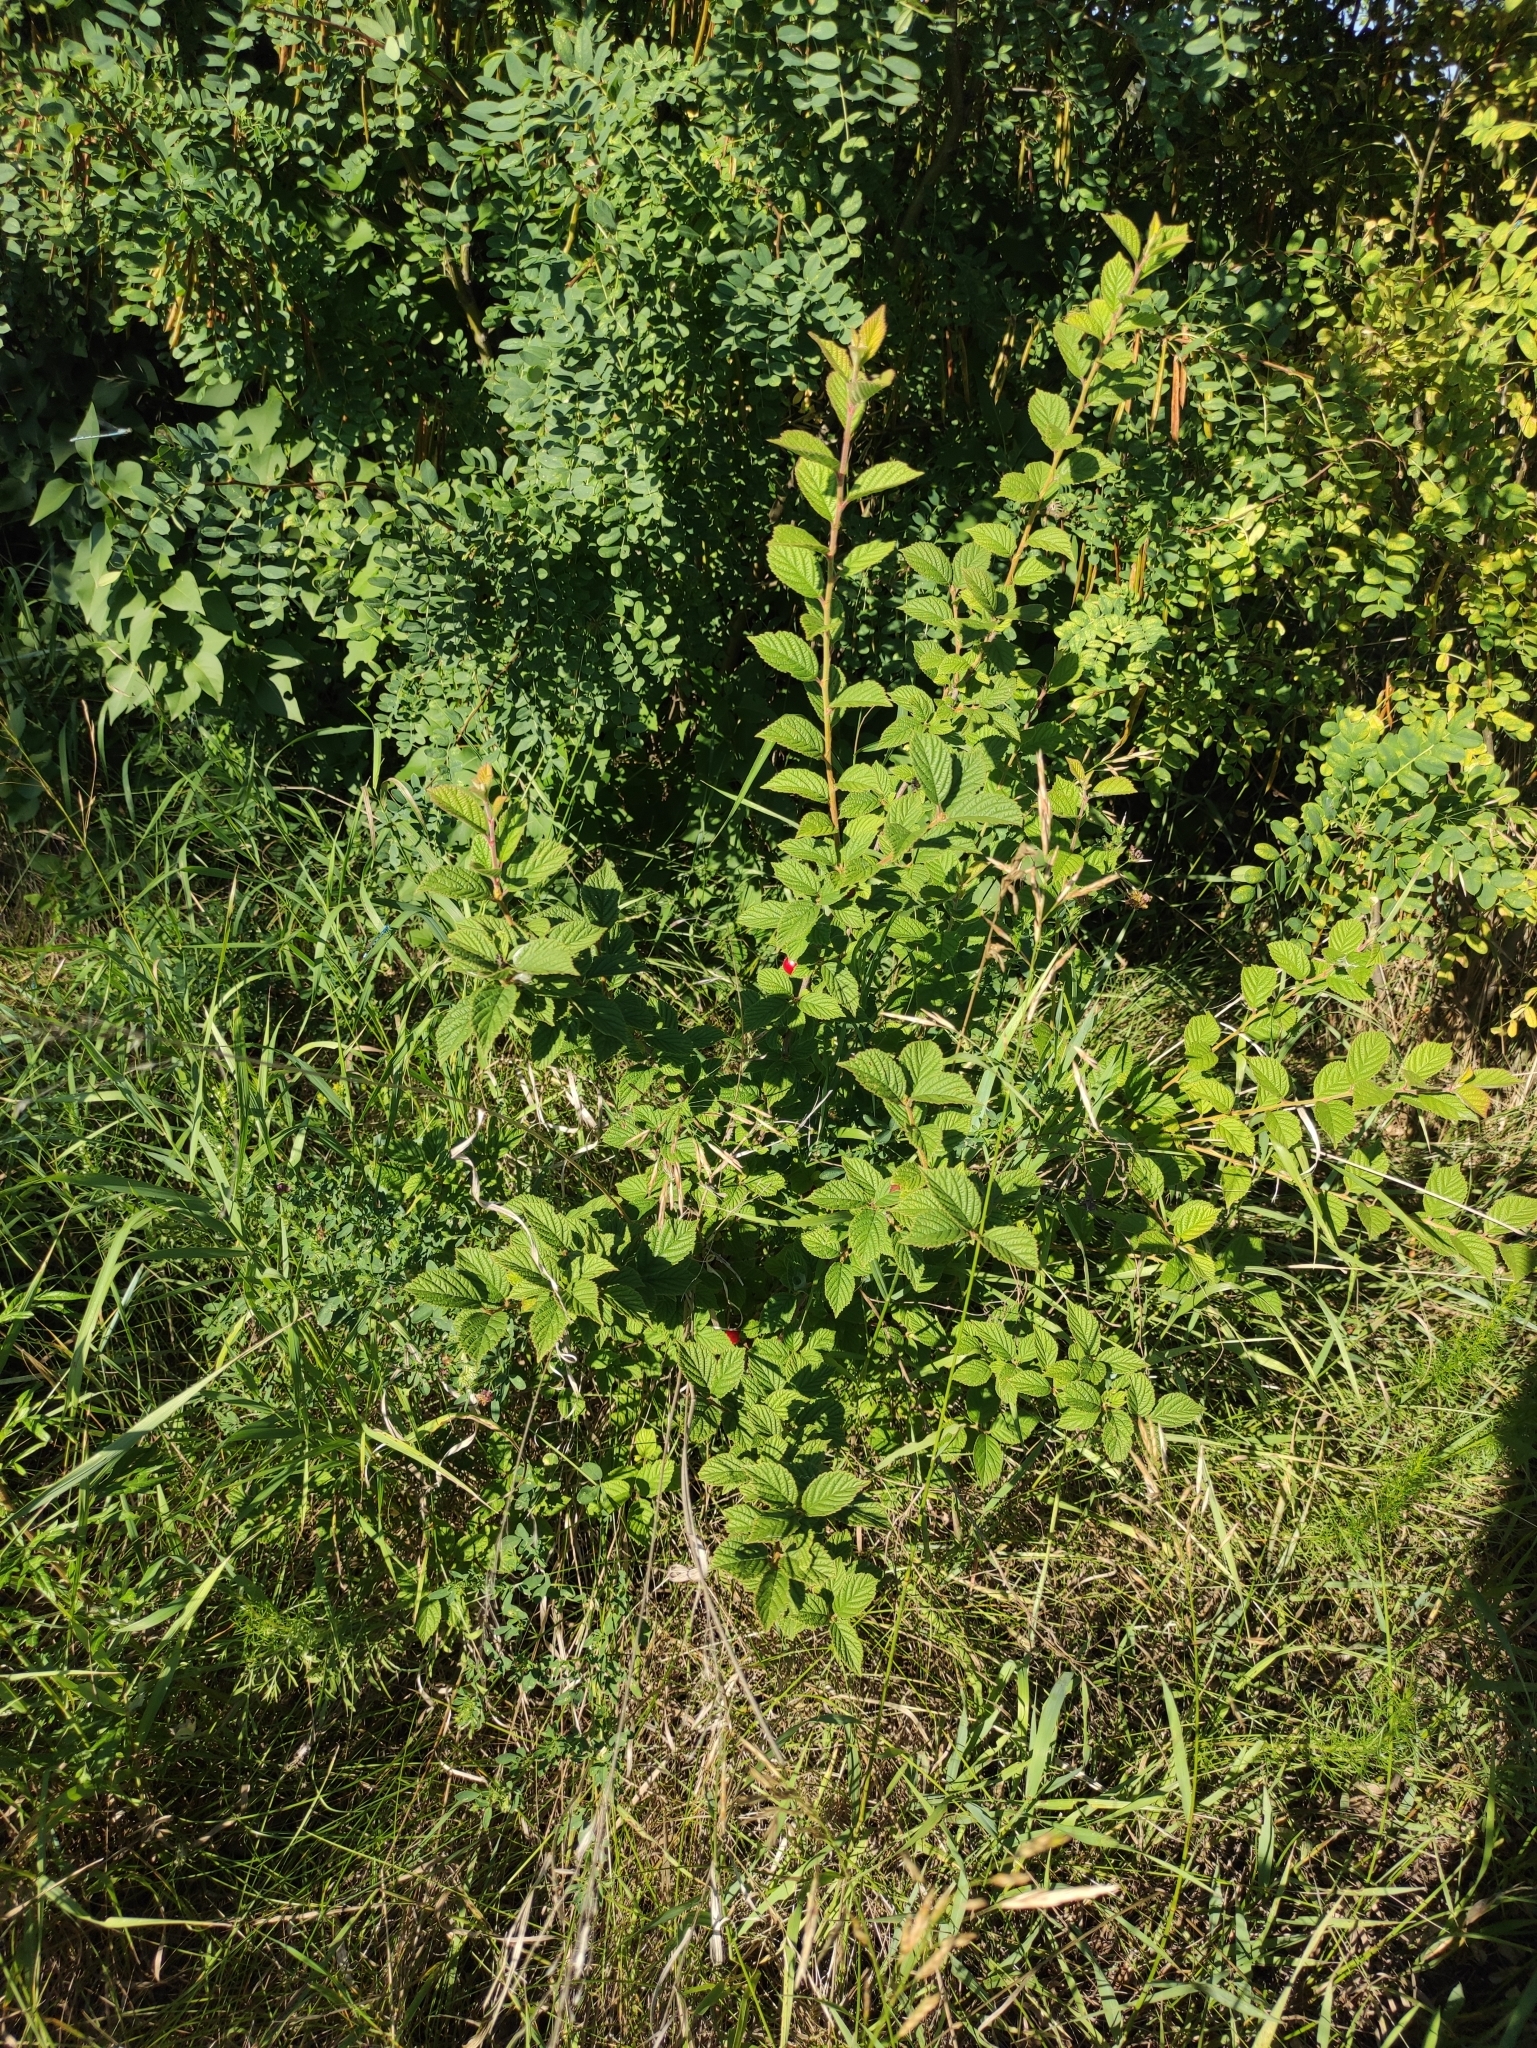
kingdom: Plantae
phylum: Tracheophyta
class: Magnoliopsida
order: Rosales
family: Rosaceae
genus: Prunus
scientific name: Prunus tomentosa
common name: Nanking cherry
